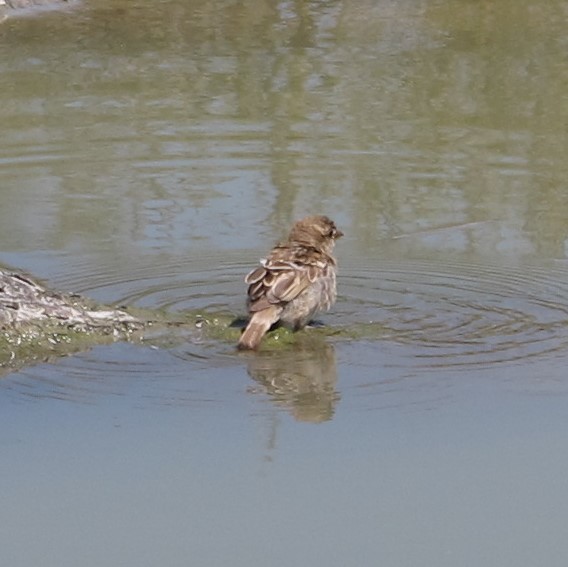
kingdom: Animalia
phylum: Chordata
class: Aves
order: Passeriformes
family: Passeridae
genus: Passer
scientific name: Passer domesticus
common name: House sparrow
